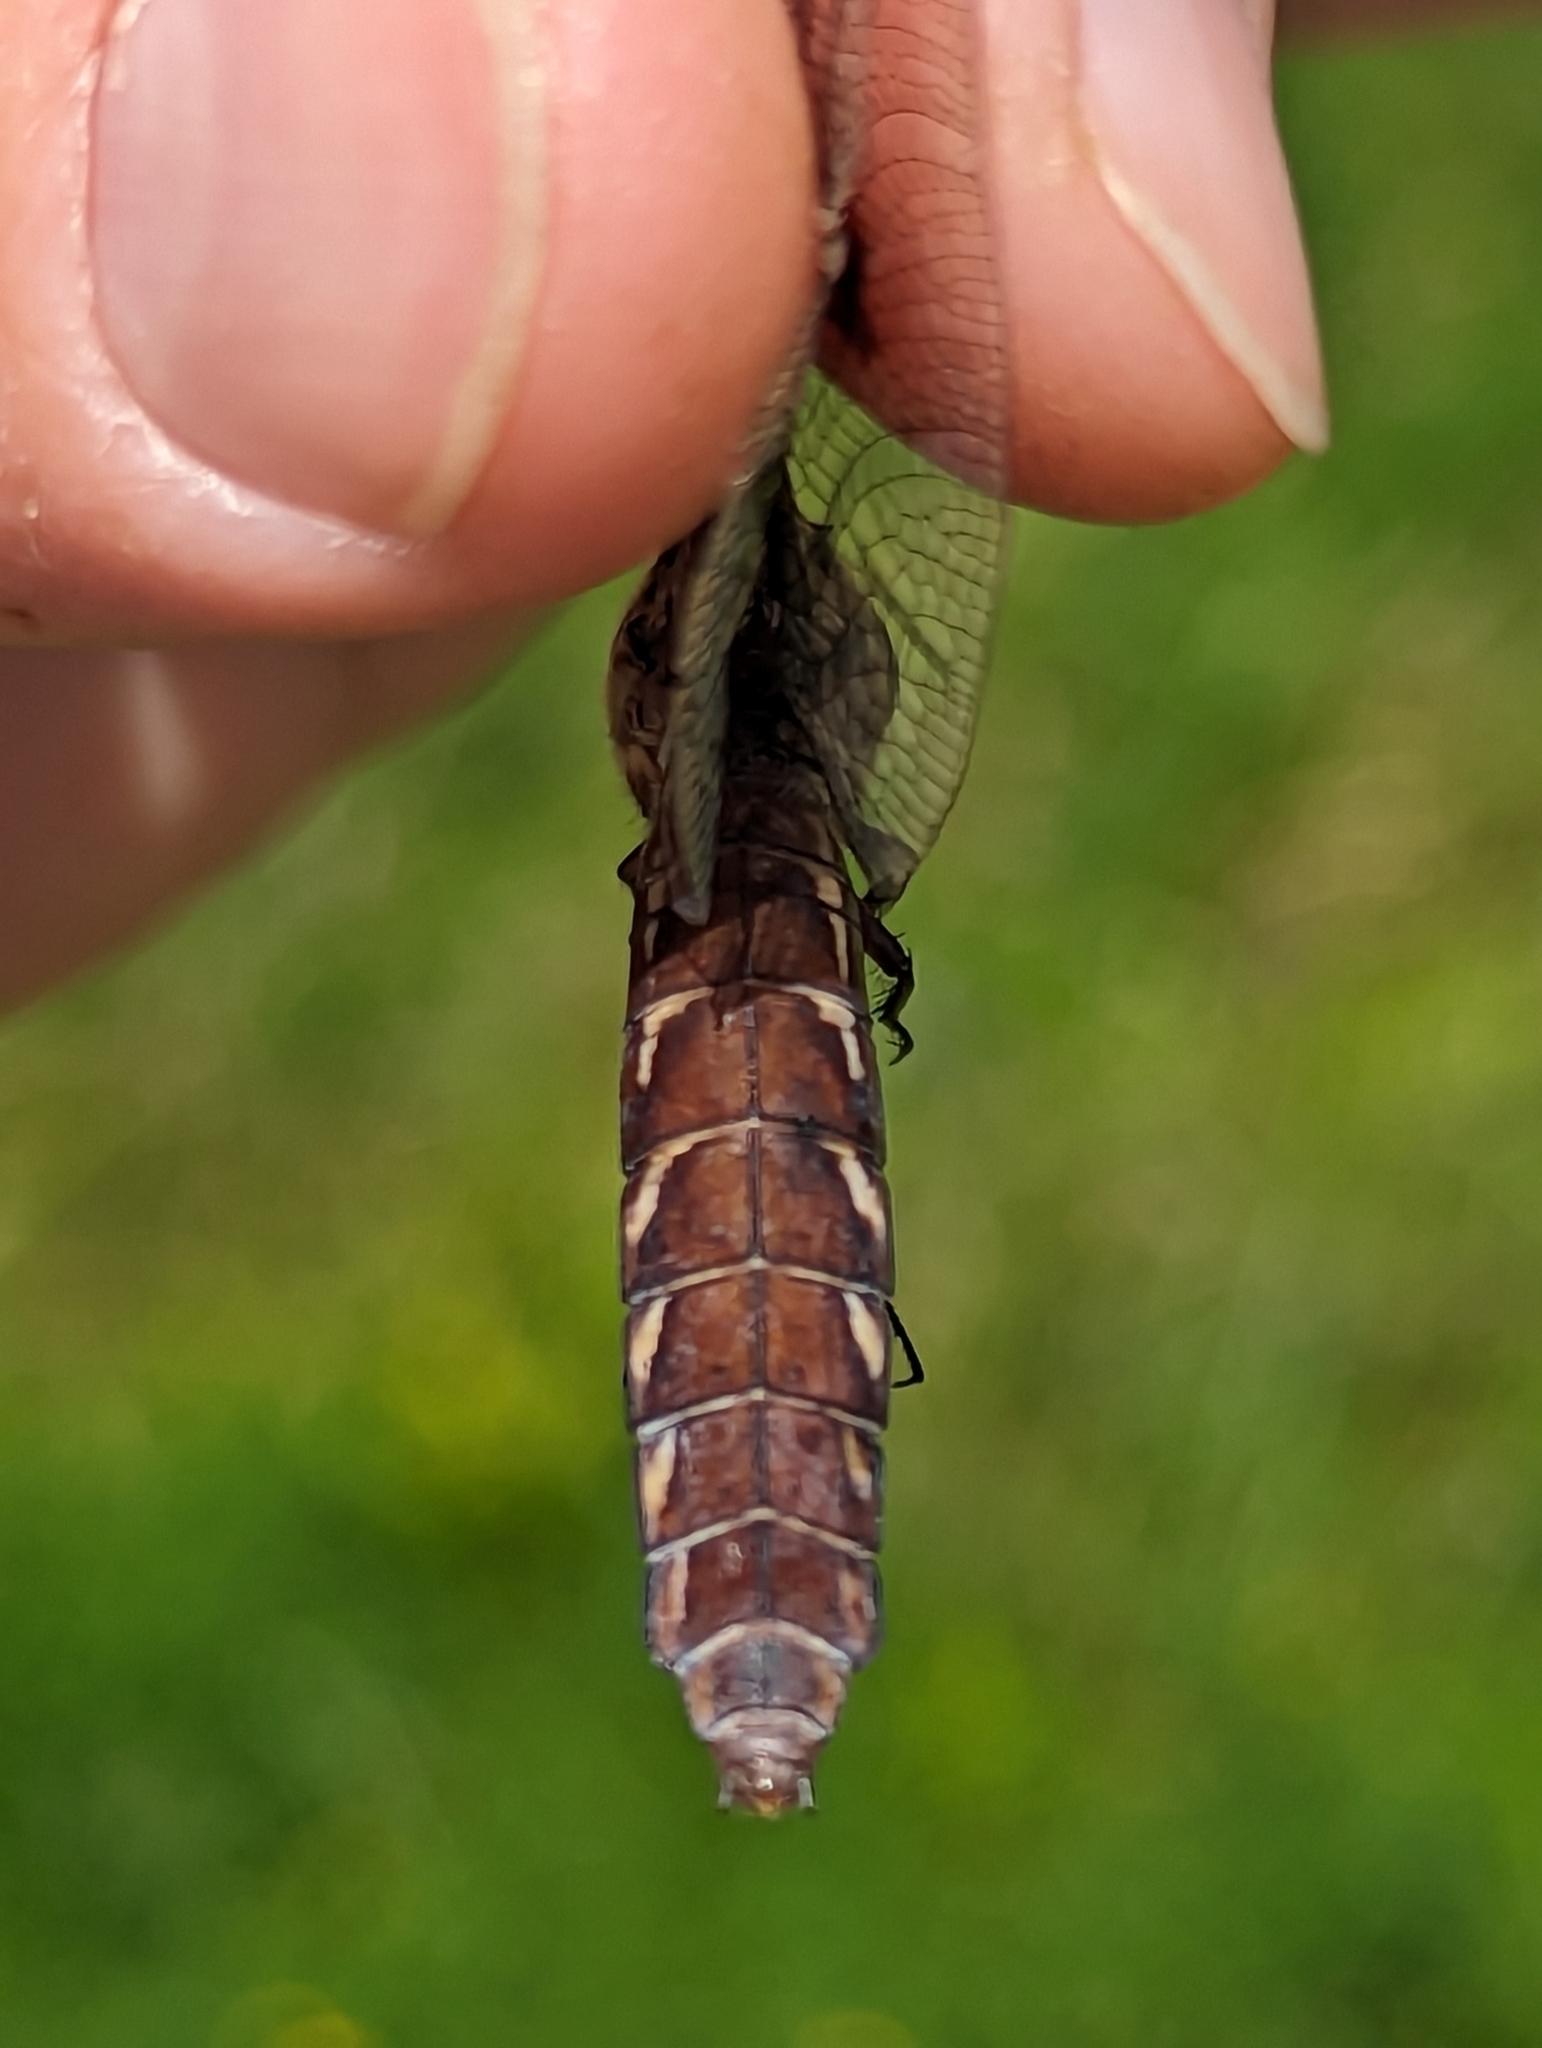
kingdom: Animalia
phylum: Arthropoda
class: Insecta
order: Odonata
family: Libellulidae
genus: Plathemis
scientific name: Plathemis lydia
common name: Common whitetail
